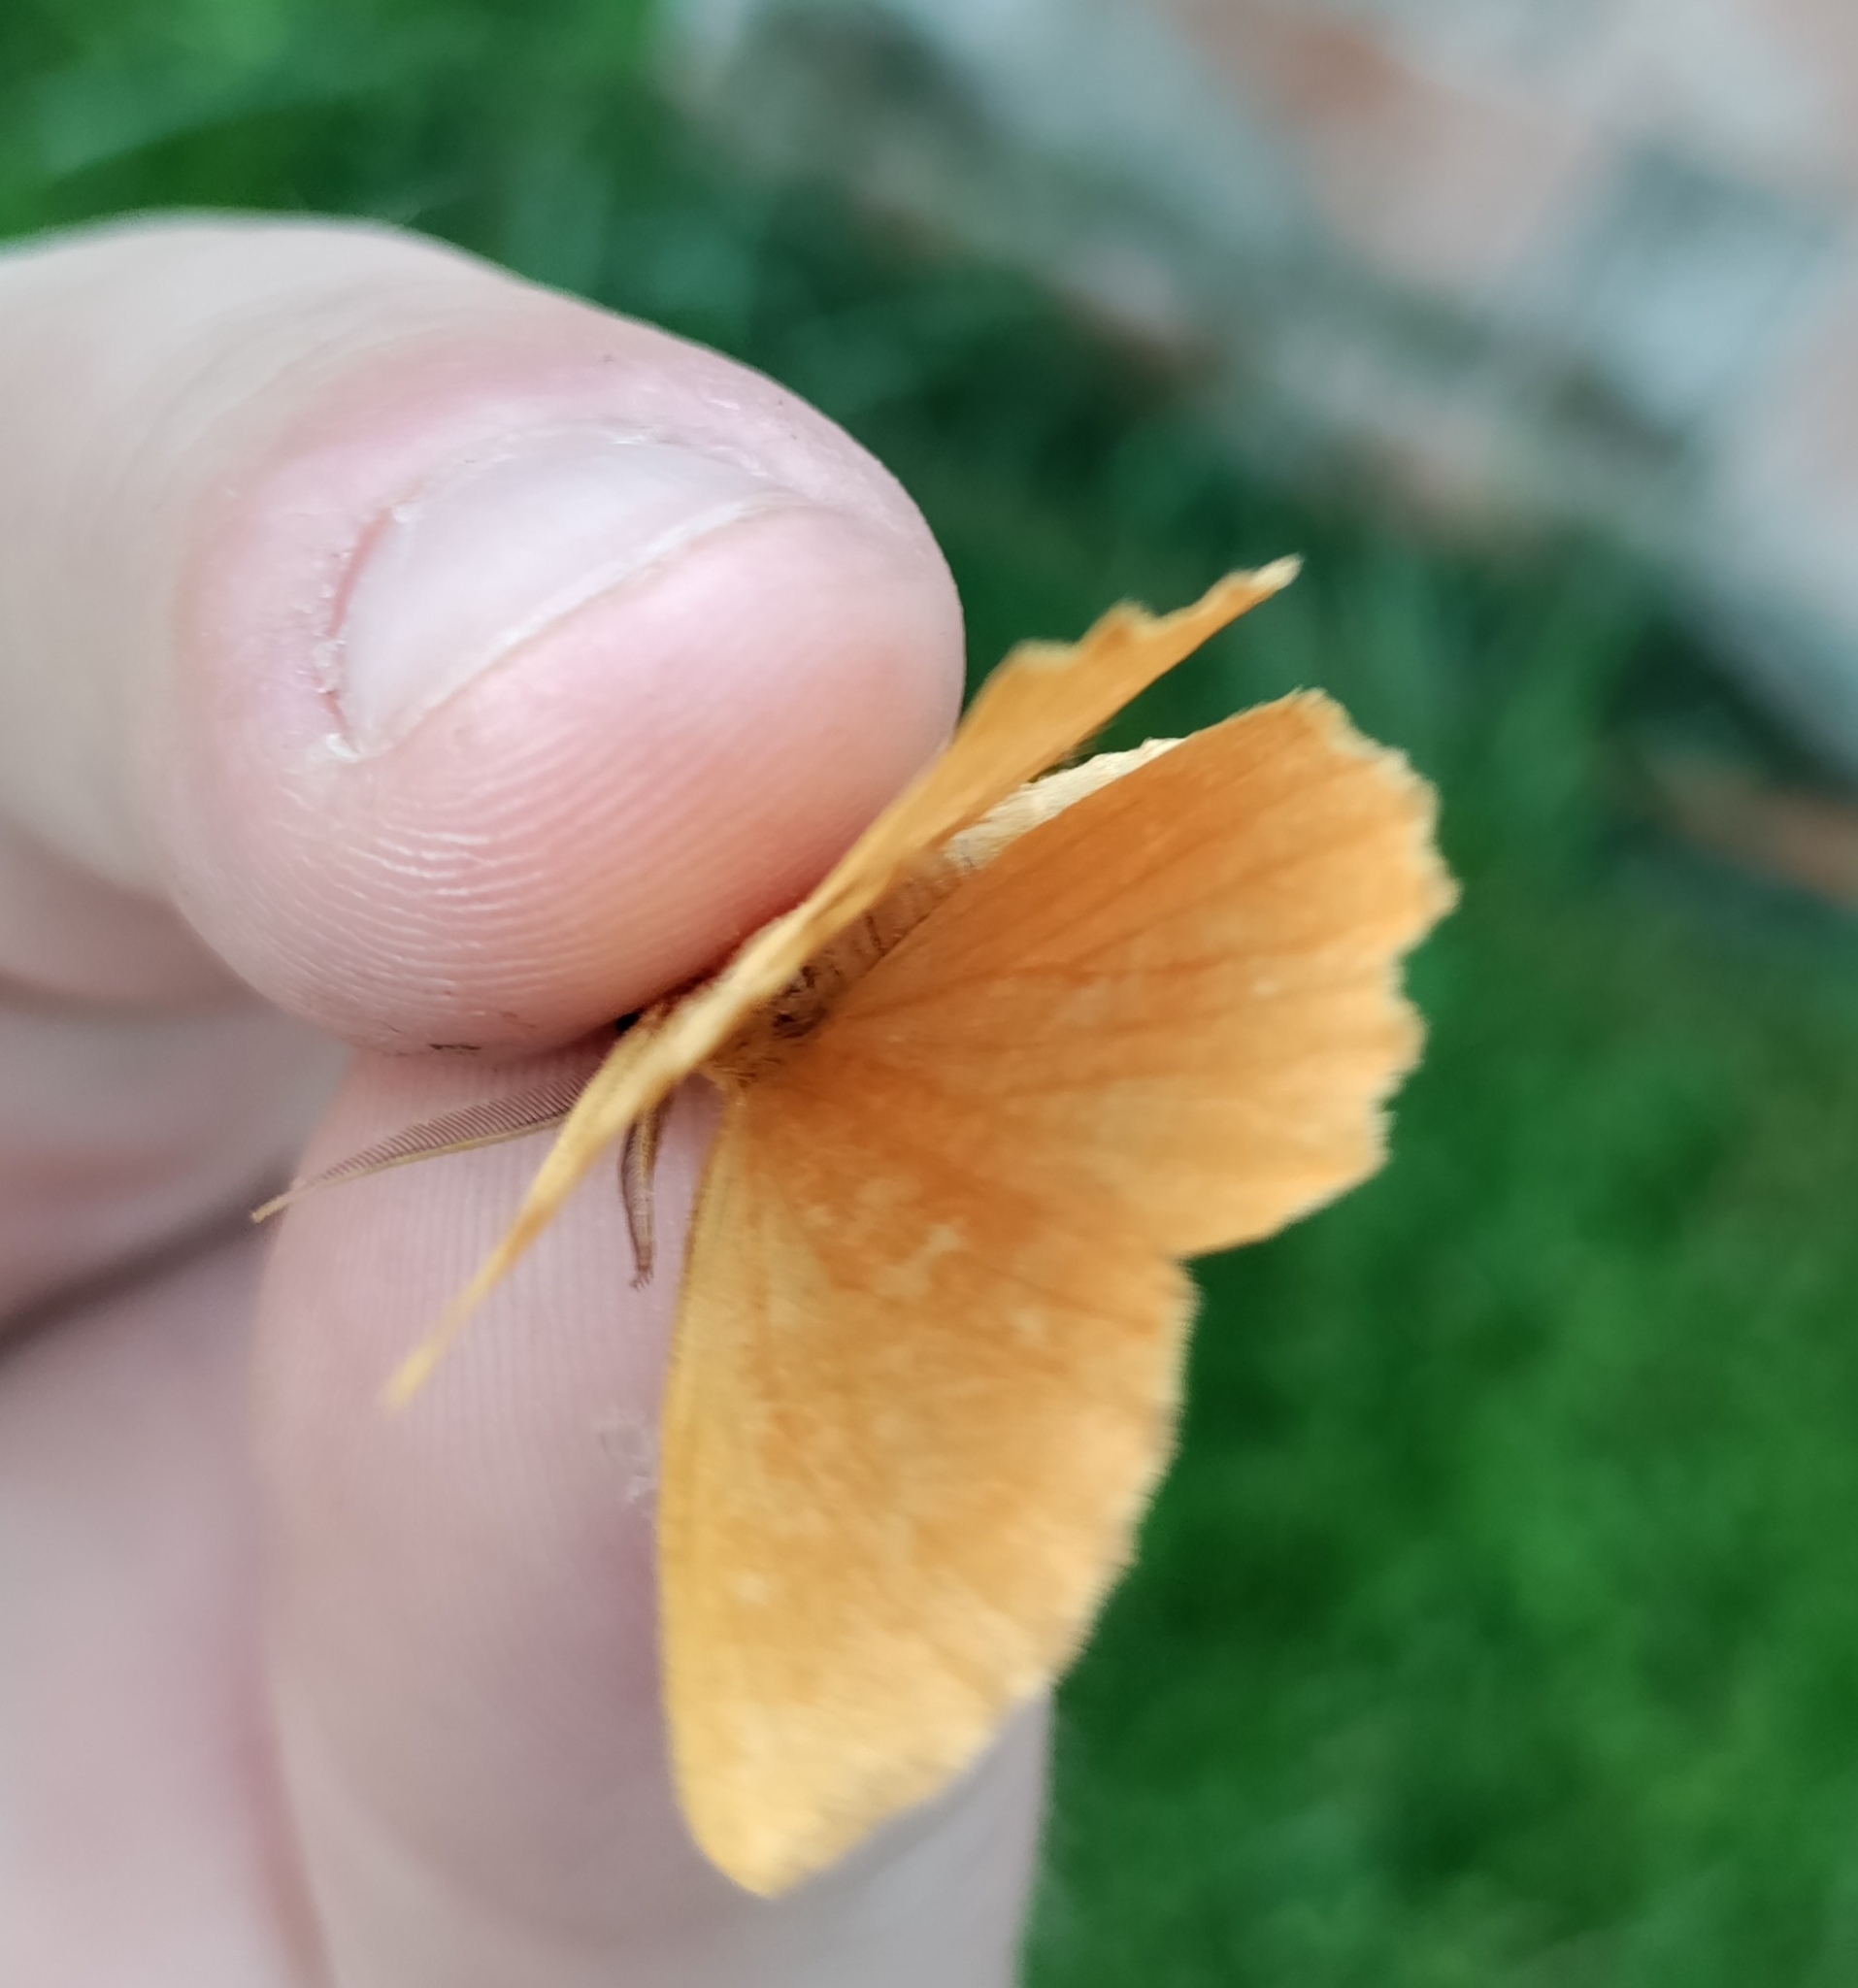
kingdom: Animalia
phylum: Arthropoda
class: Insecta
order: Lepidoptera
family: Geometridae
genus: Angerona
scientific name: Angerona prunaria
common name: Orange moth
